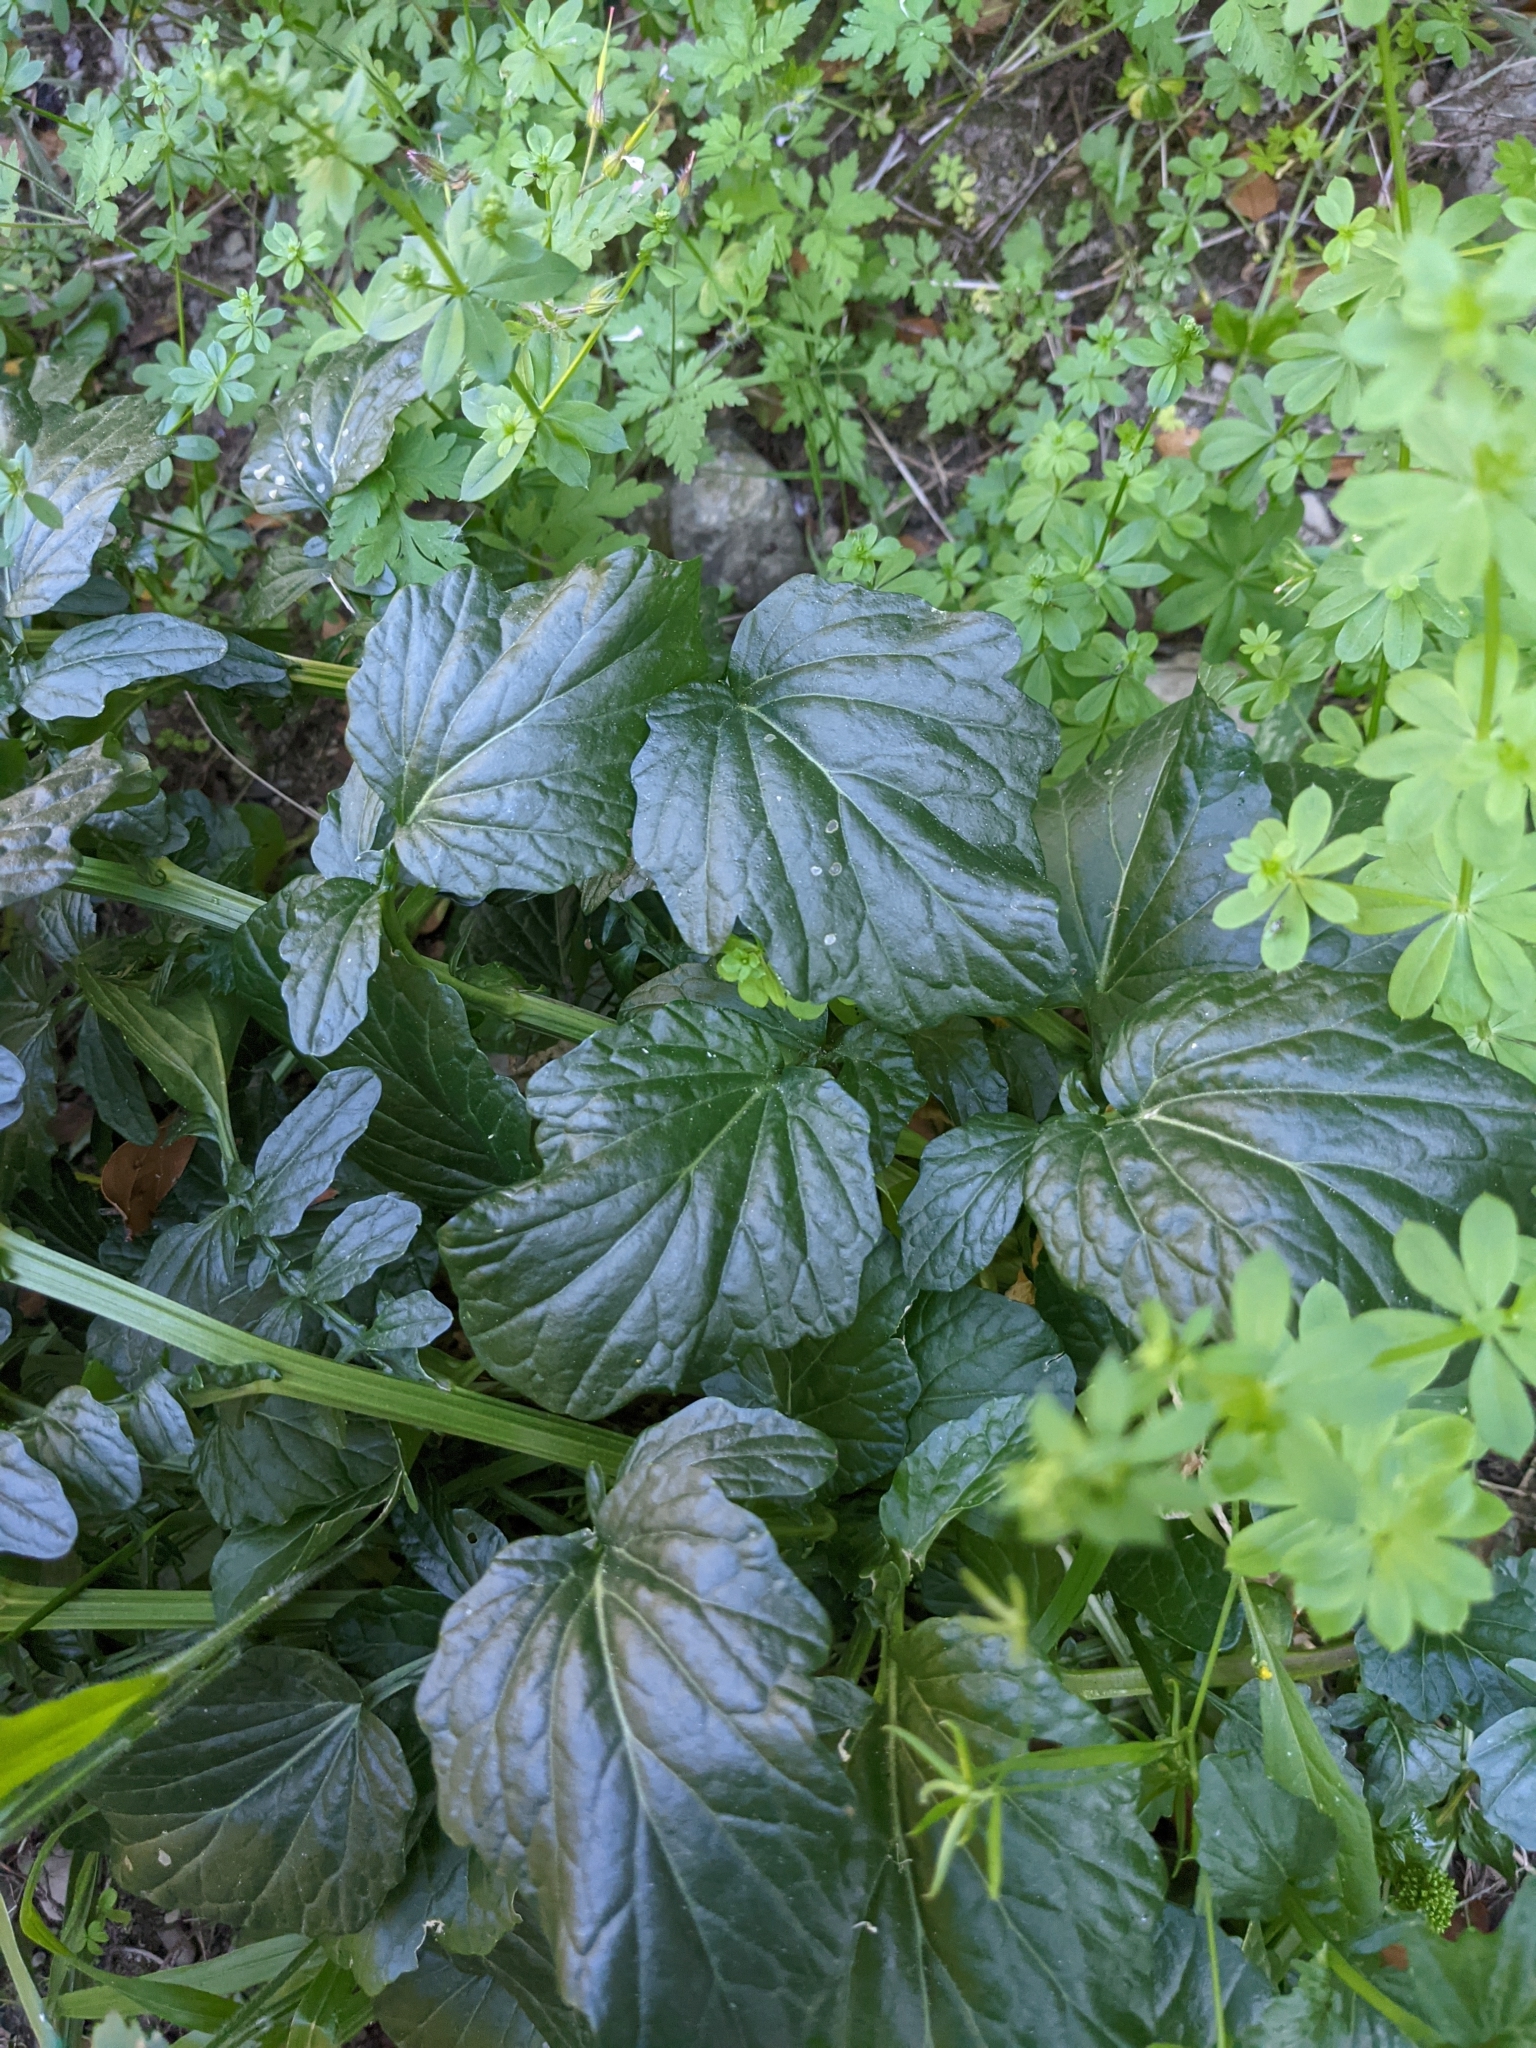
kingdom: Plantae
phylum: Tracheophyta
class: Magnoliopsida
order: Brassicales
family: Brassicaceae
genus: Barbarea
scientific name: Barbarea vulgaris
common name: Cressy-greens
